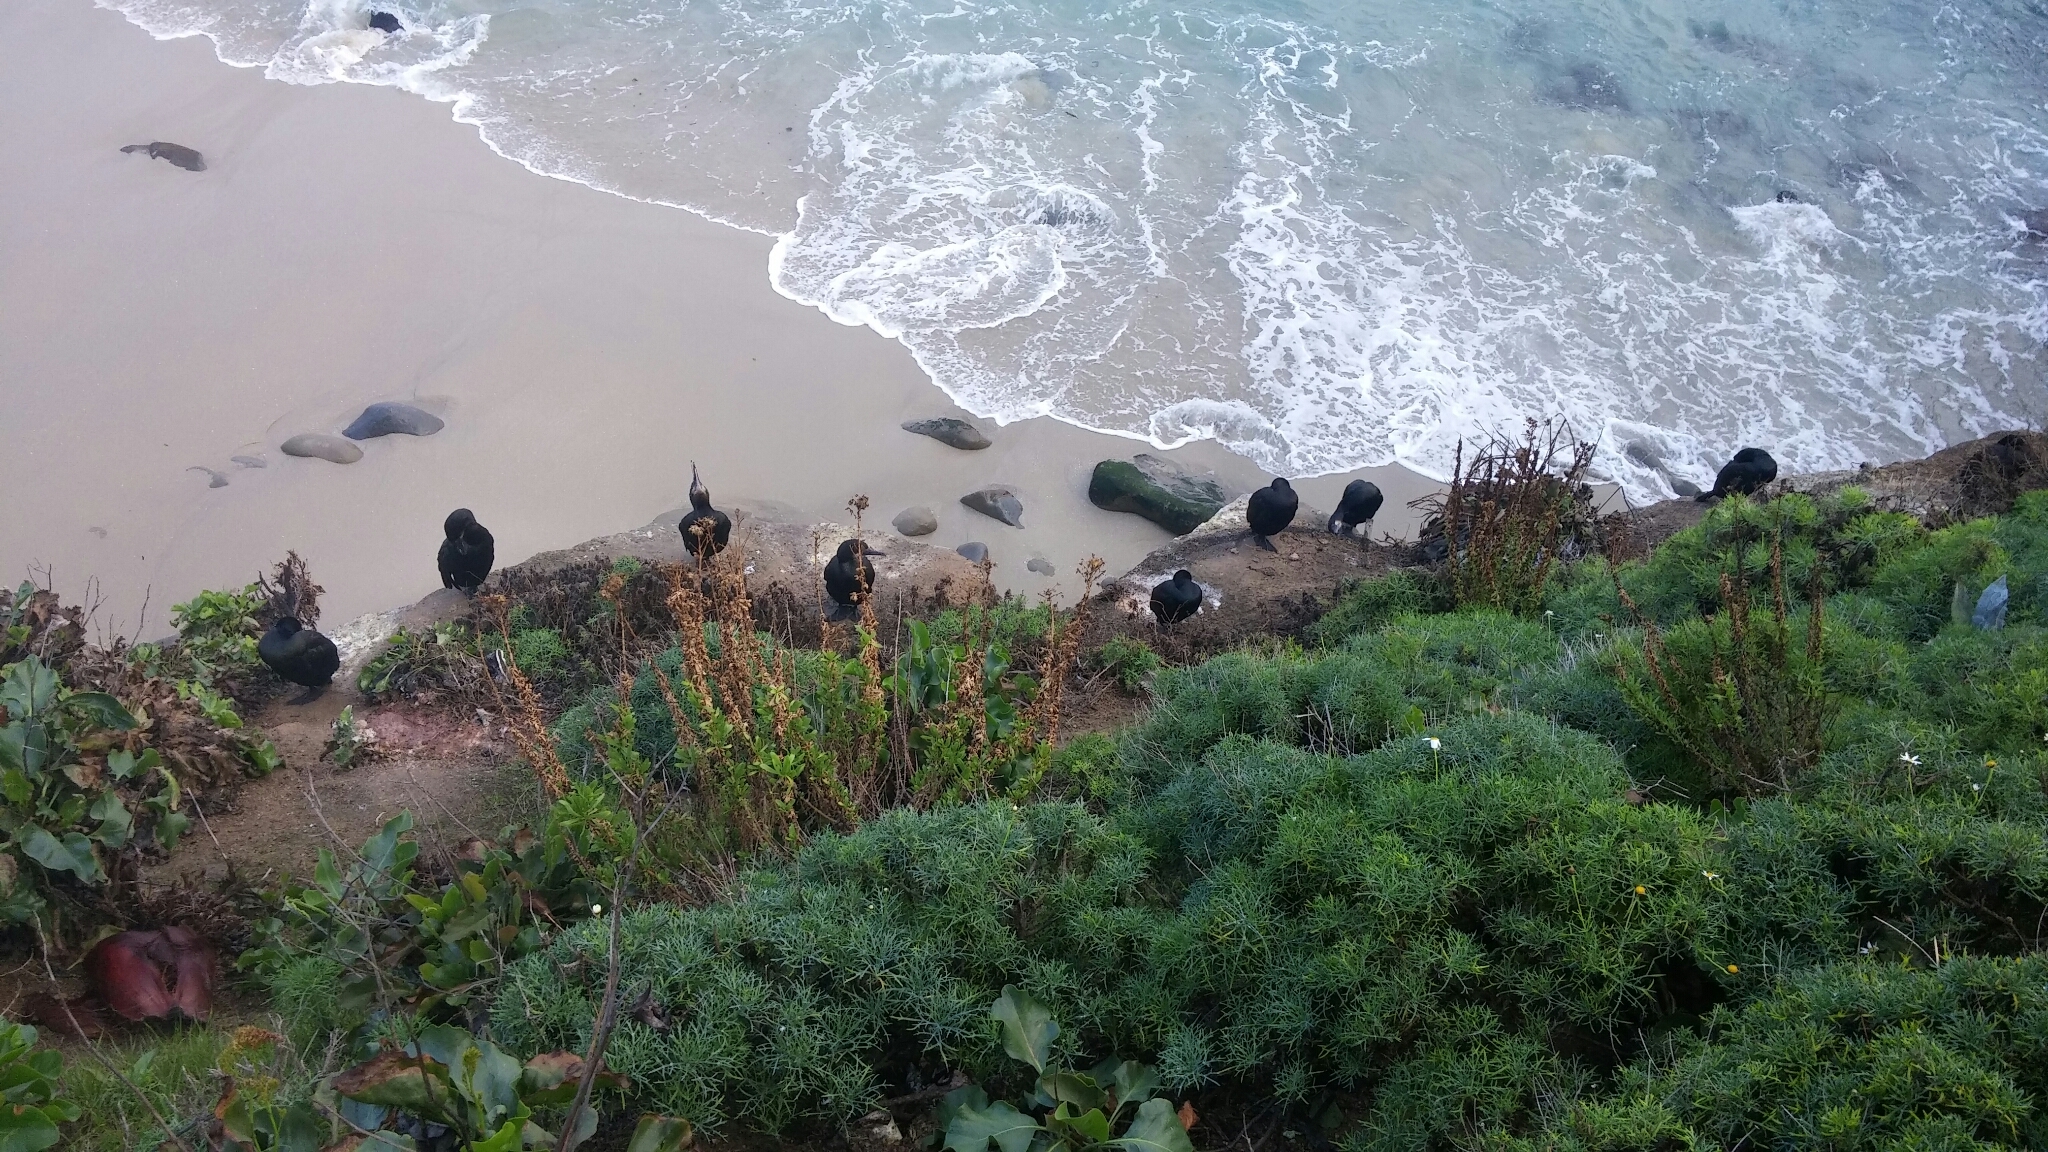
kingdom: Animalia
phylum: Chordata
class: Aves
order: Suliformes
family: Phalacrocoracidae
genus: Urile
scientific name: Urile penicillatus
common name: Brandt's cormorant
